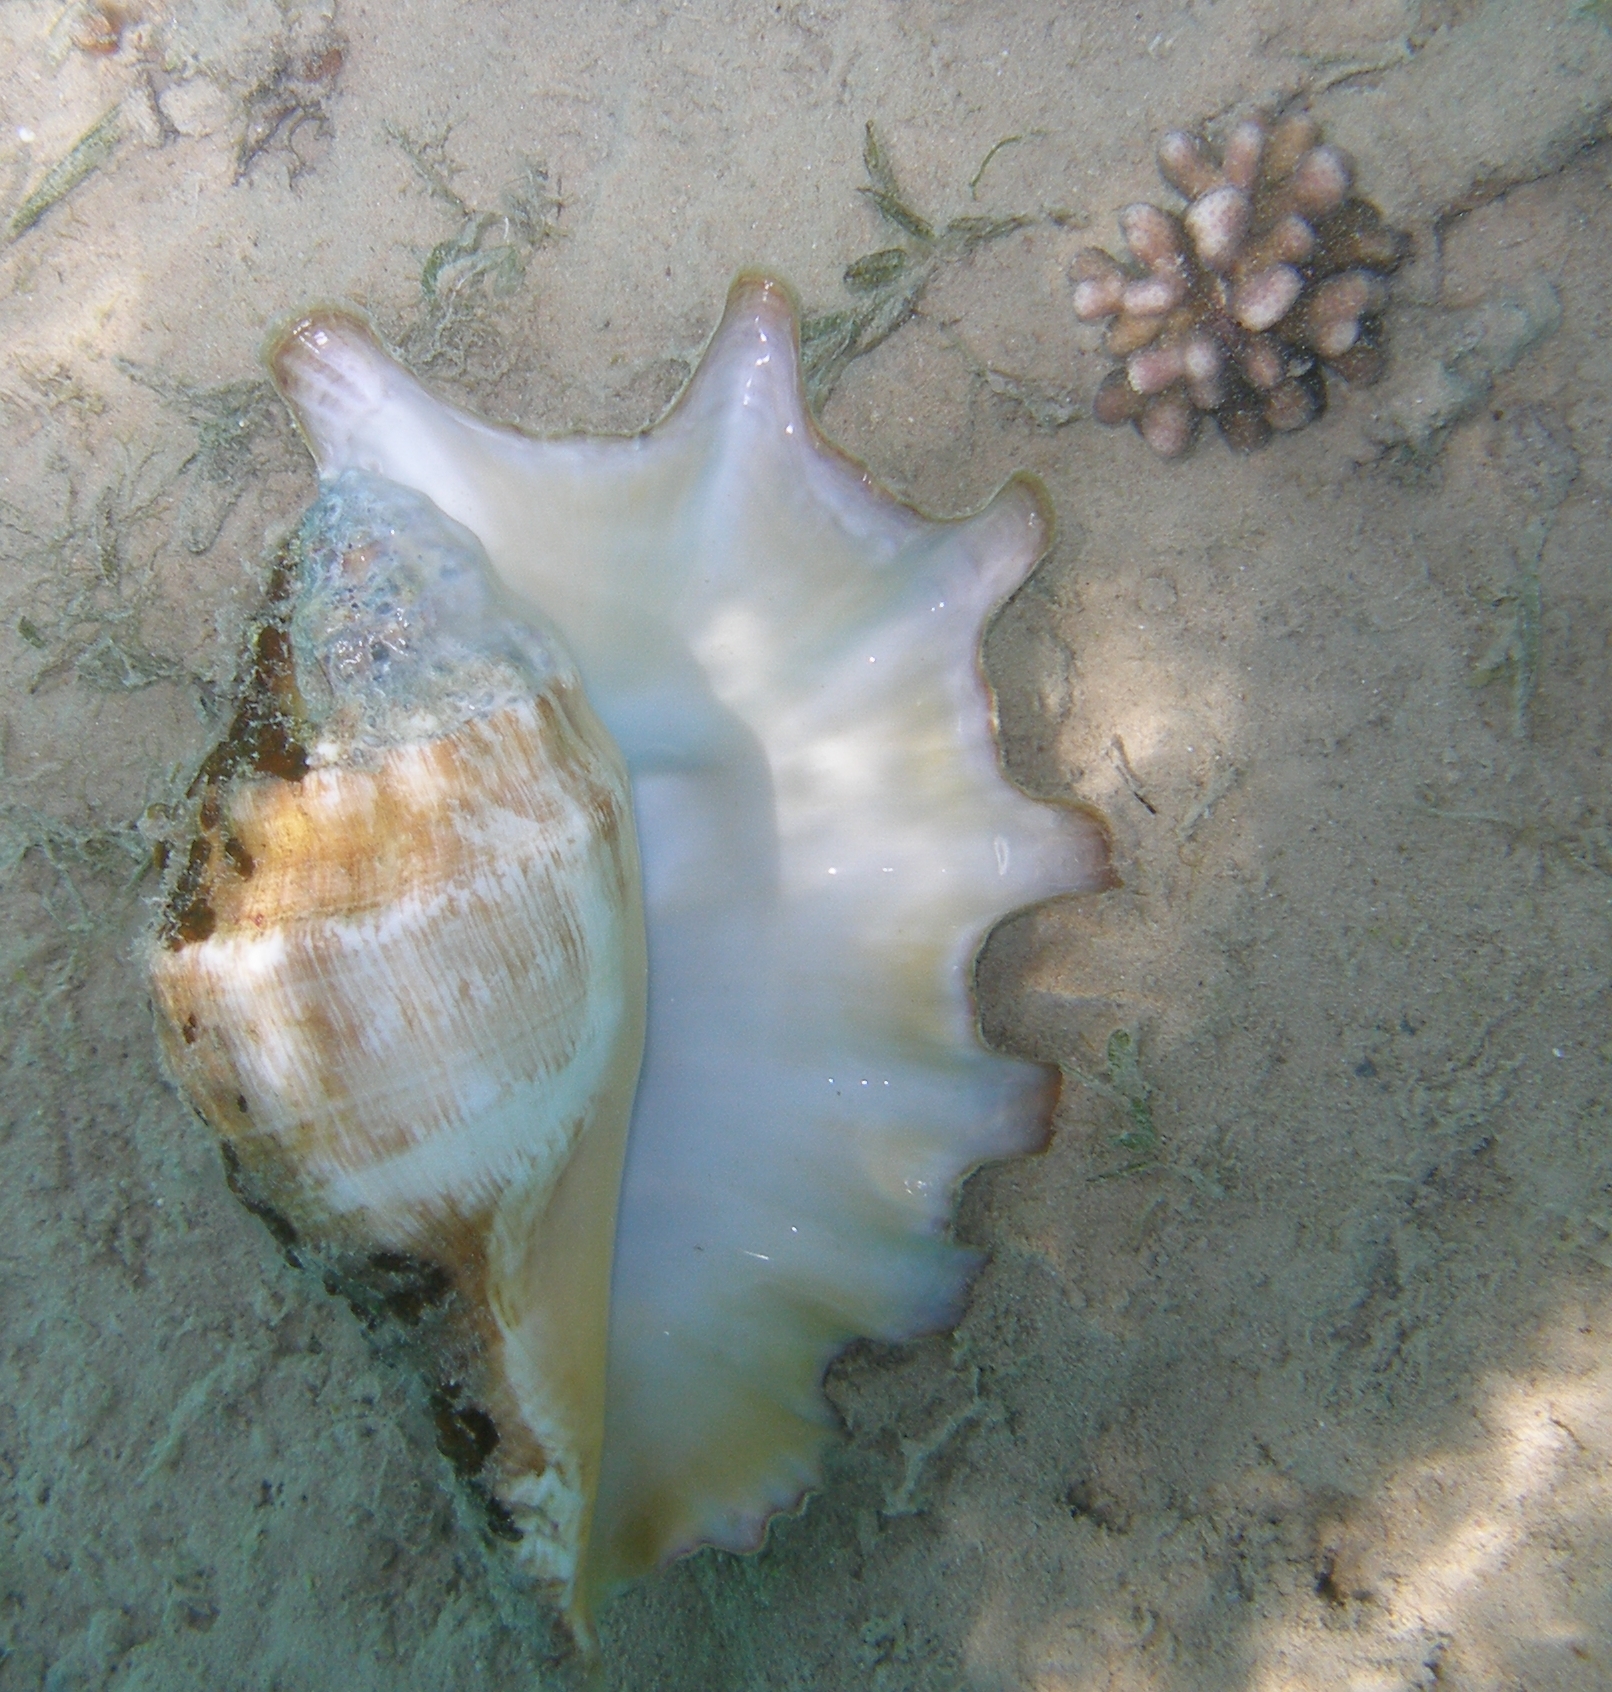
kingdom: Animalia
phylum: Mollusca
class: Gastropoda
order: Littorinimorpha
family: Strombidae
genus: Lambis
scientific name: Lambis truncata
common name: Giant spider conch
